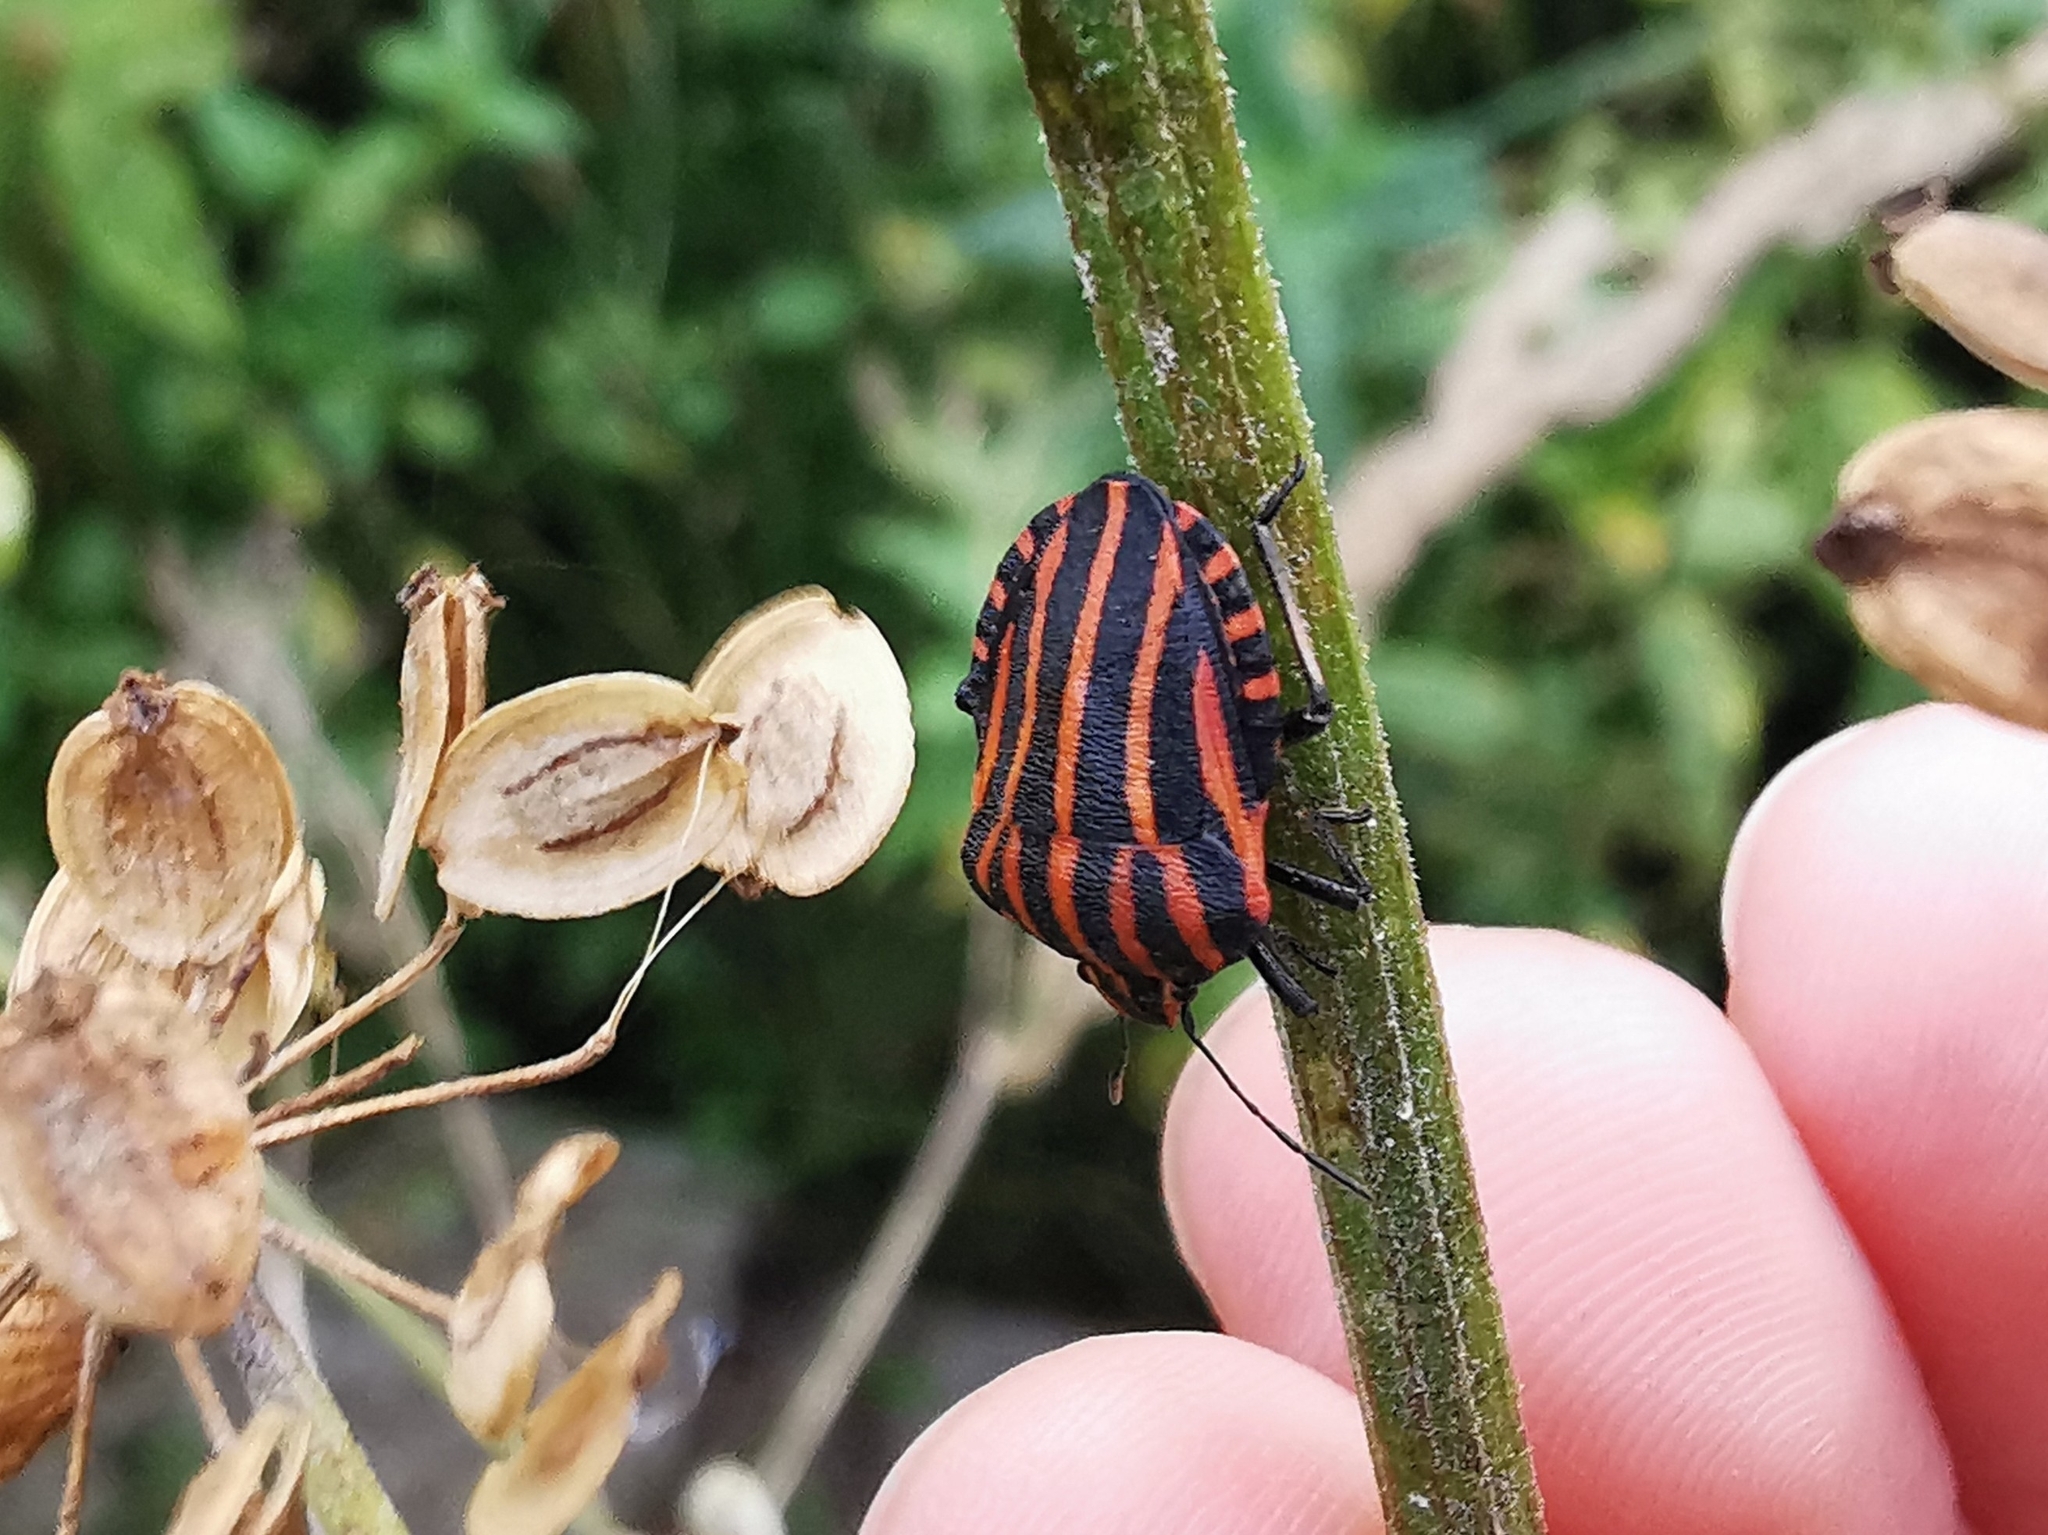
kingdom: Animalia
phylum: Arthropoda
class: Insecta
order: Hemiptera
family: Pentatomidae
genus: Graphosoma
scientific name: Graphosoma italicum
